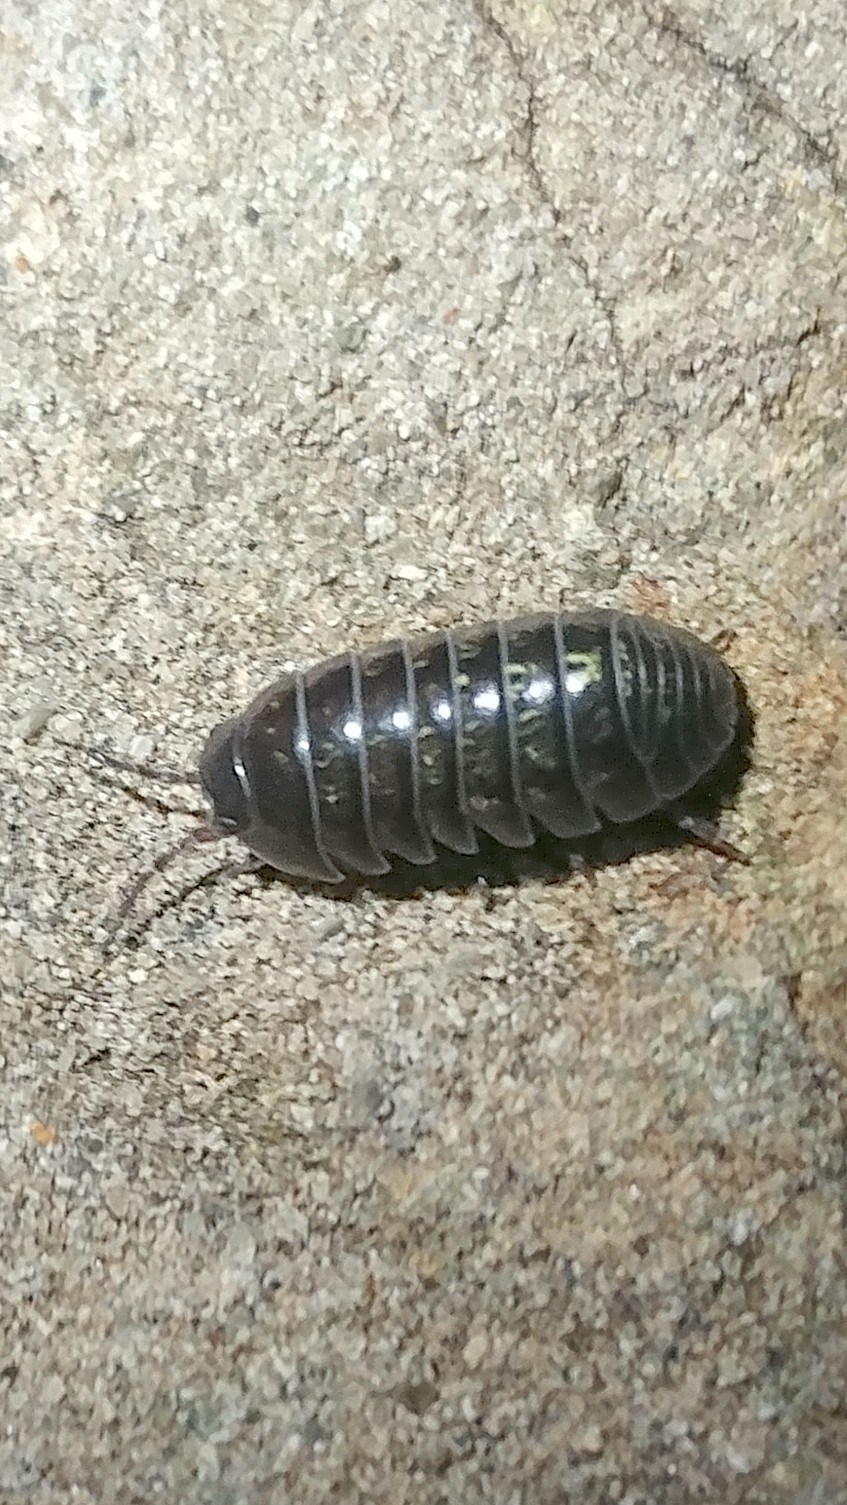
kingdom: Animalia
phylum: Arthropoda
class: Malacostraca
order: Isopoda
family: Armadillidiidae
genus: Armadillidium
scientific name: Armadillidium vulgare
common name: Common pill woodlouse
